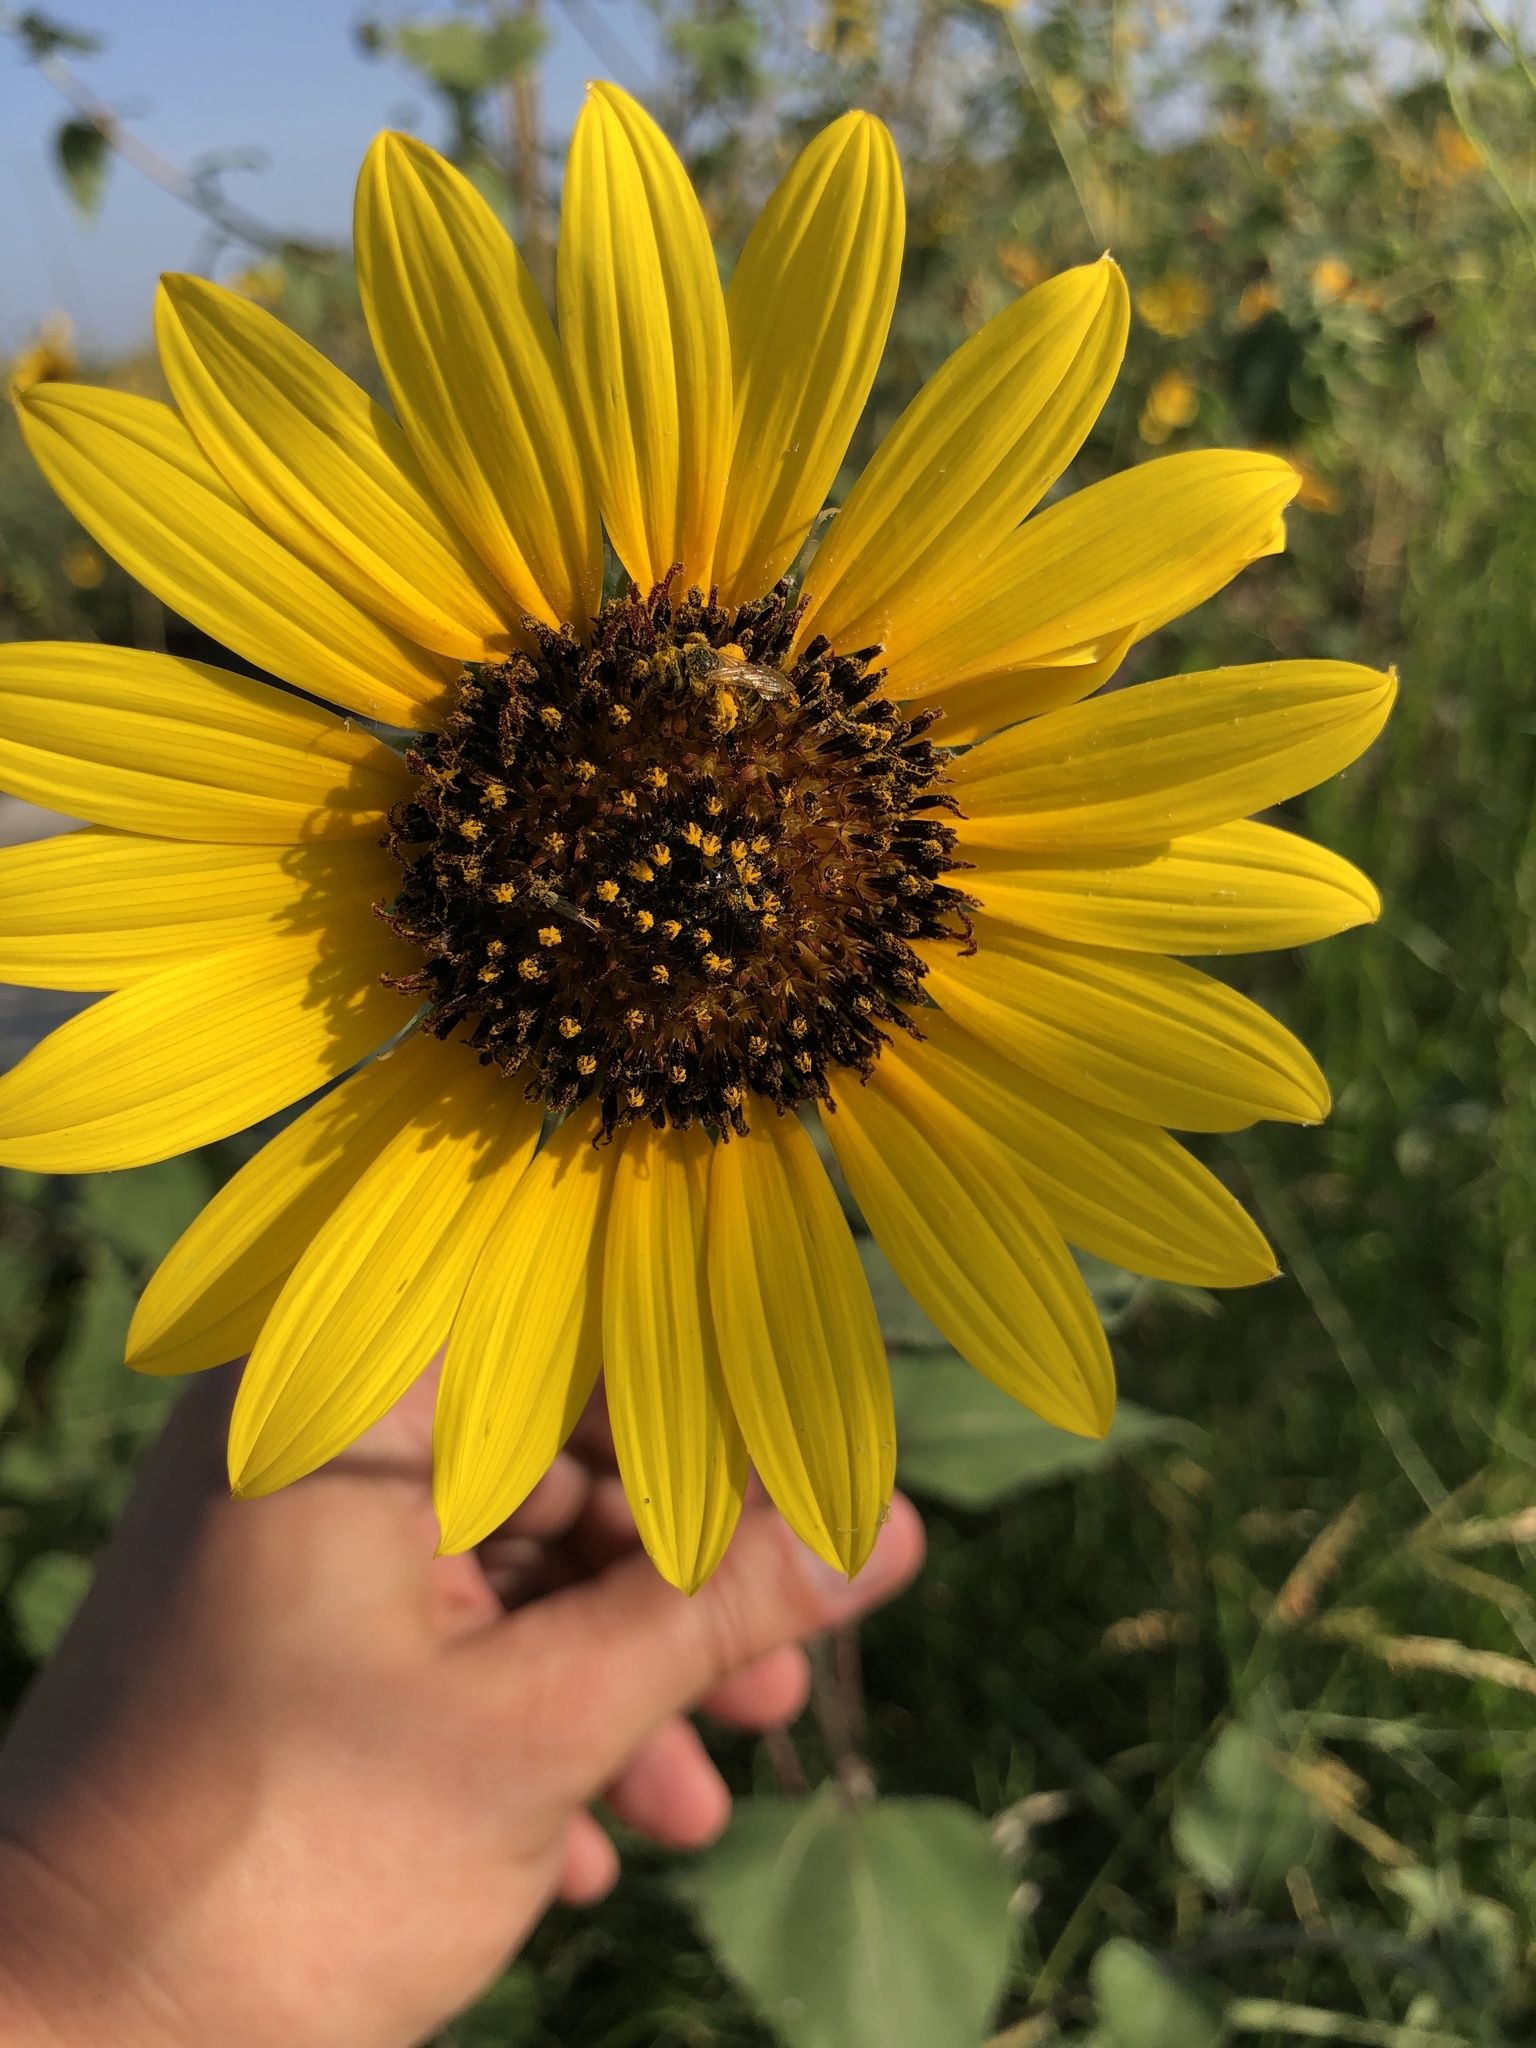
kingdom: Plantae
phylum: Tracheophyta
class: Magnoliopsida
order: Asterales
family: Asteraceae
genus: Helianthus
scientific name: Helianthus annuus
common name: Sunflower
